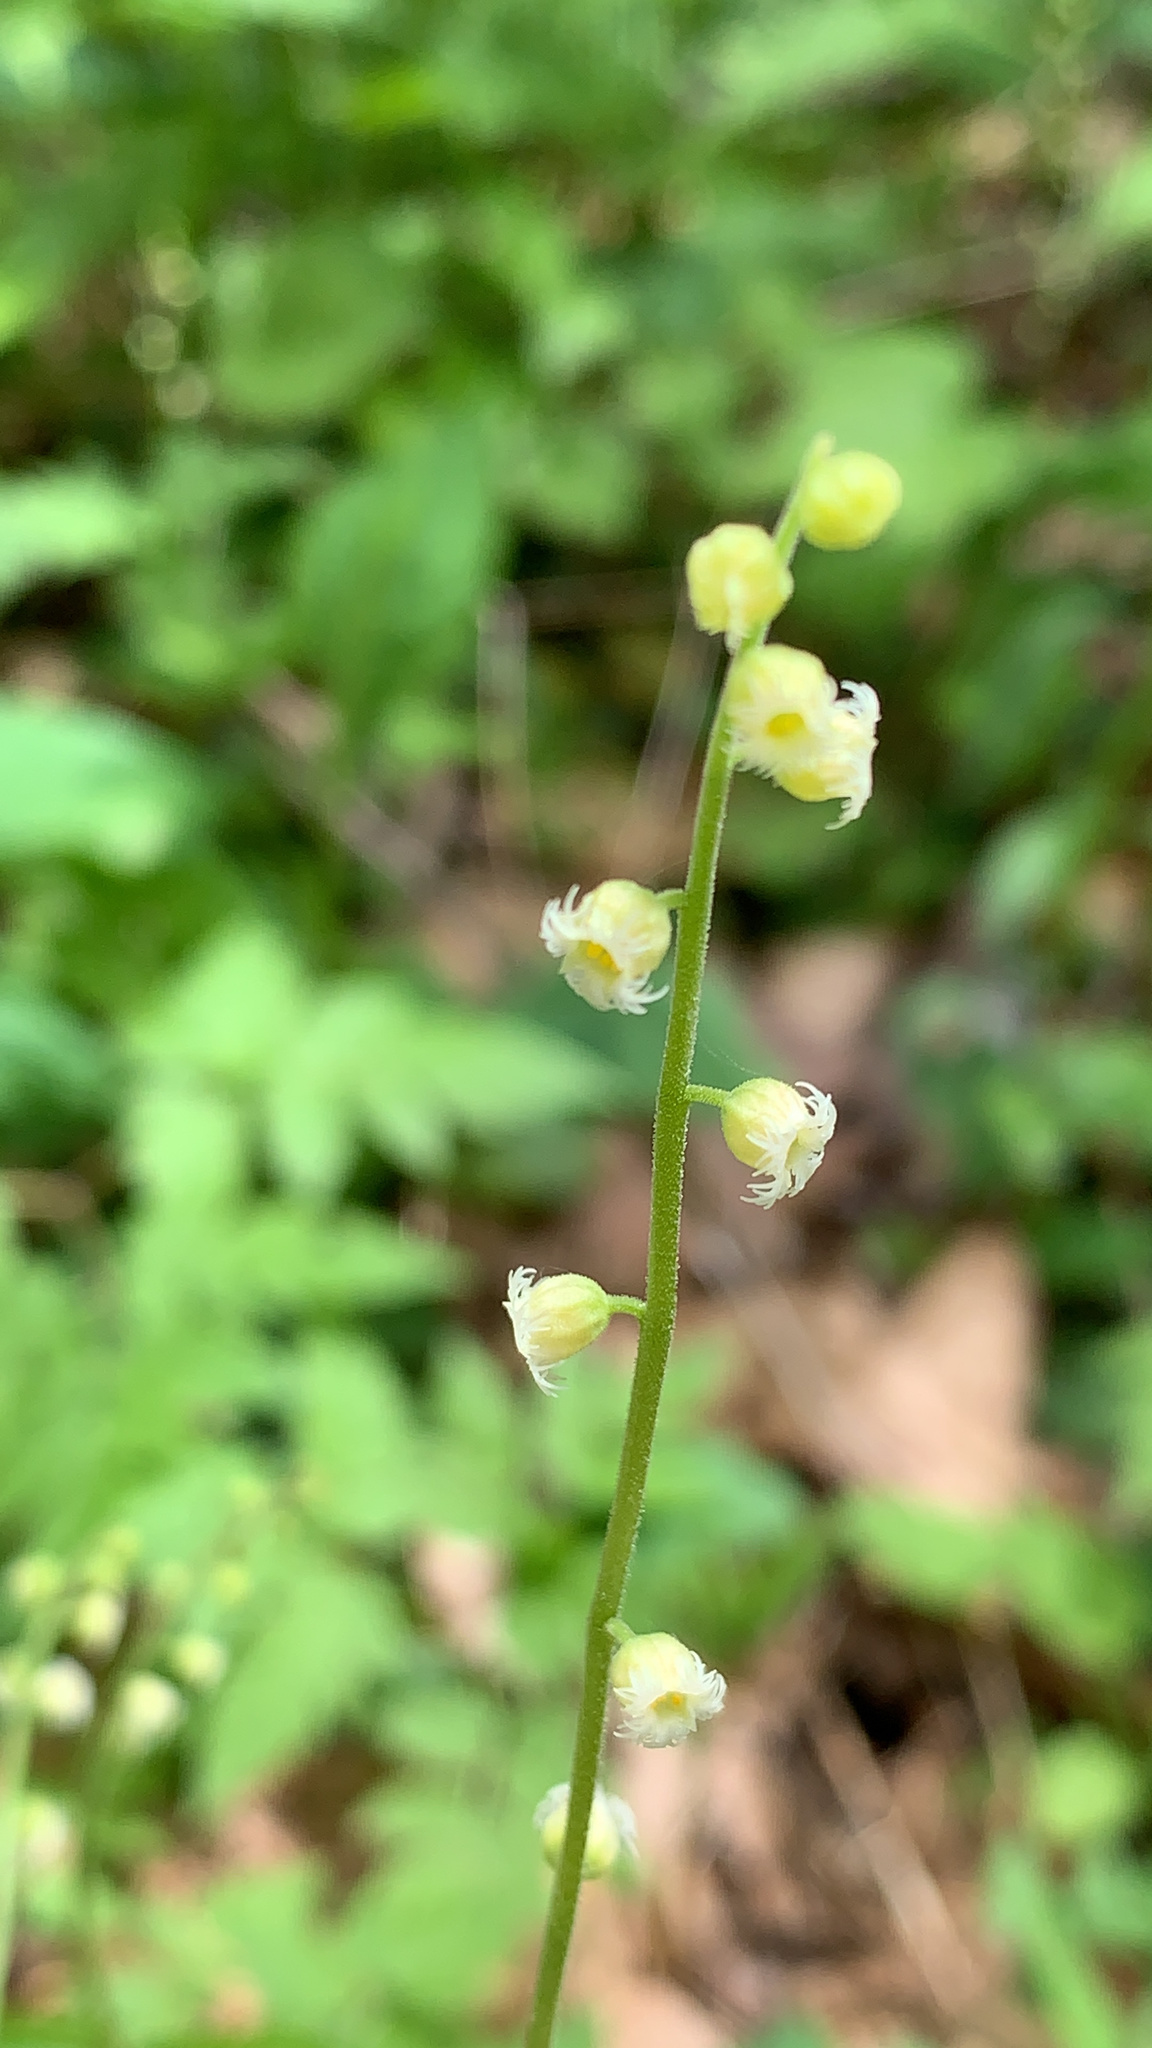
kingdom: Plantae
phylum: Tracheophyta
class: Magnoliopsida
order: Saxifragales
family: Saxifragaceae
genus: Mitella
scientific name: Mitella diphylla
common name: Coolwort
